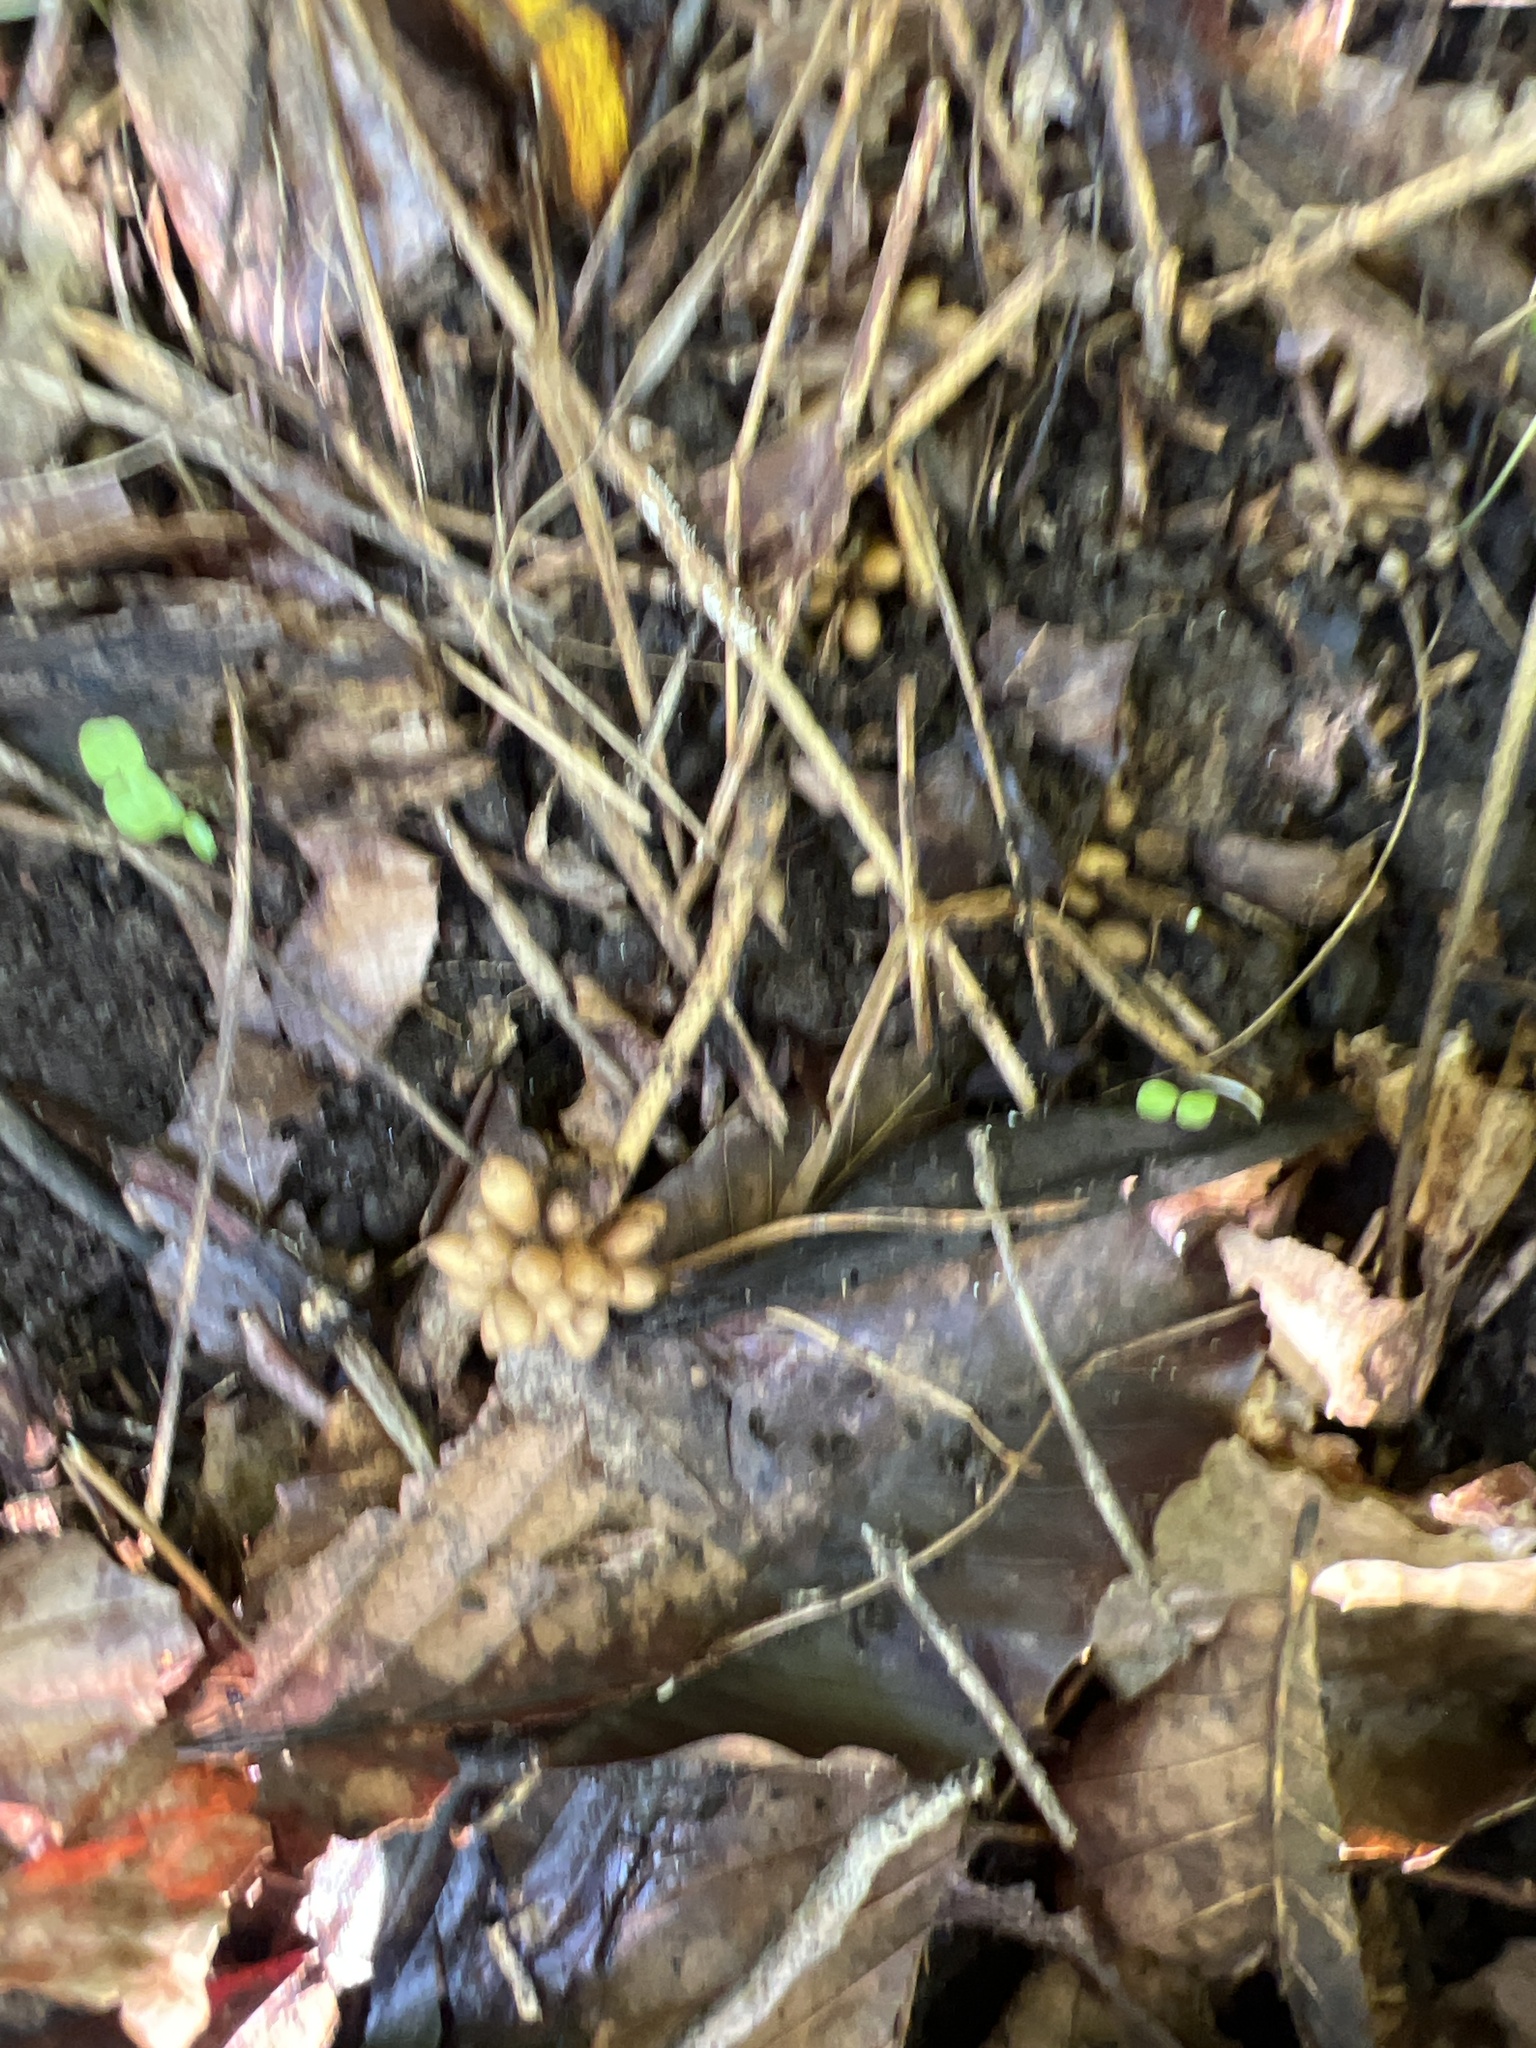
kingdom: Plantae
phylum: Tracheophyta
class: Magnoliopsida
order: Ranunculales
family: Ranunculaceae
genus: Ficaria
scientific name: Ficaria verna
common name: Lesser celandine
